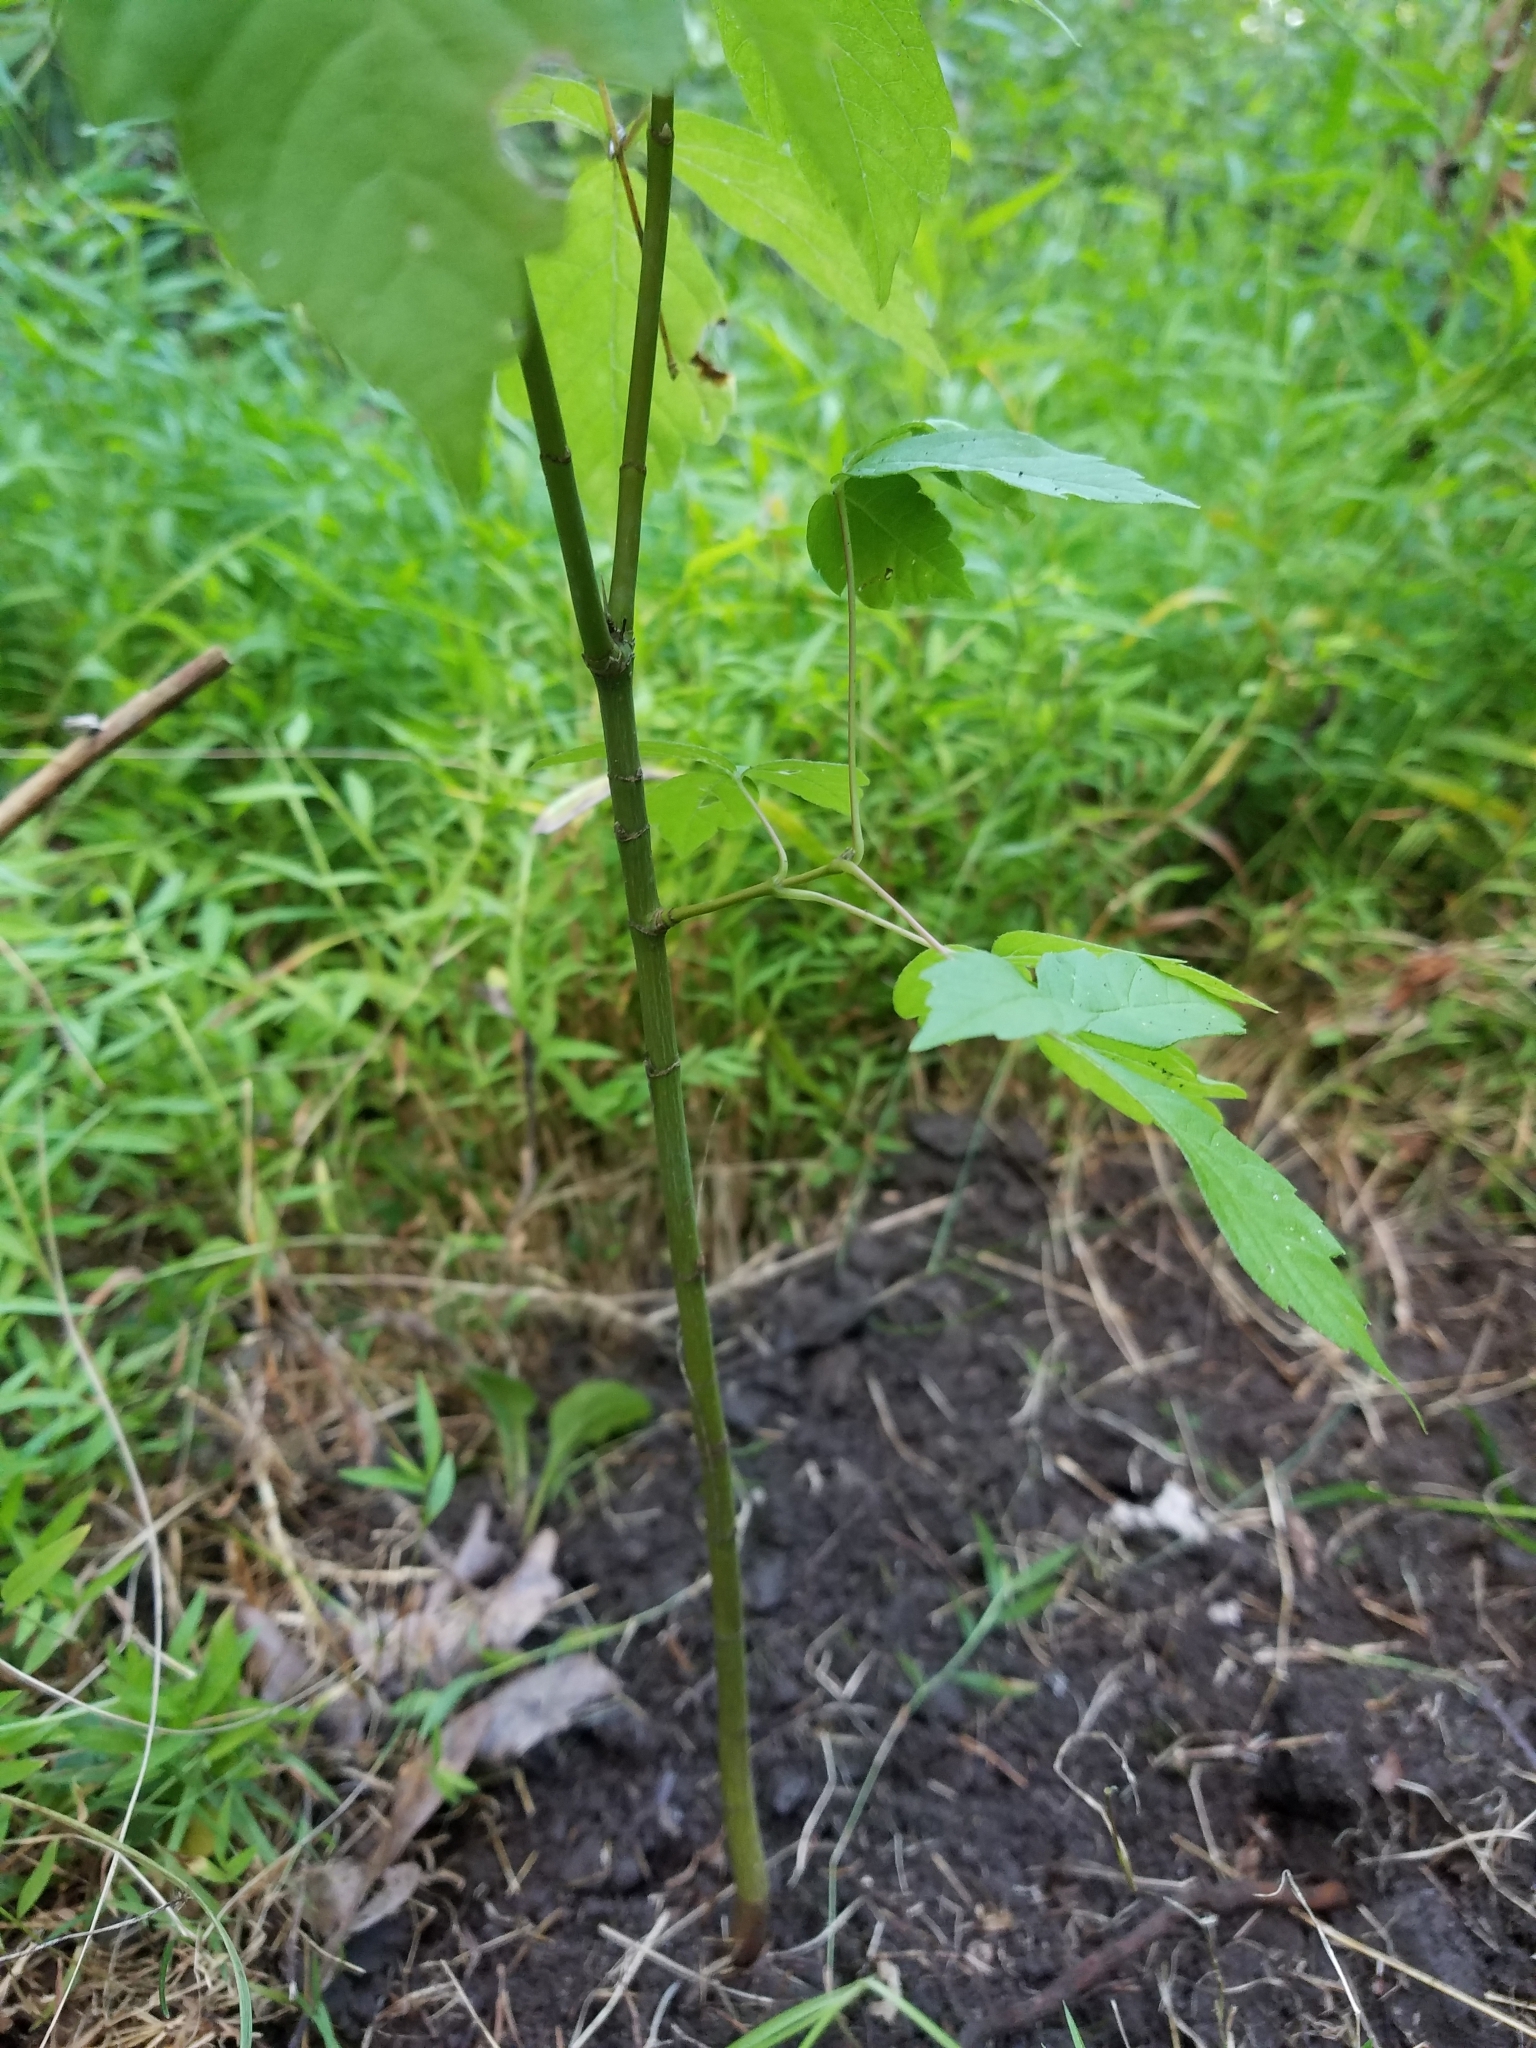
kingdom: Plantae
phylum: Tracheophyta
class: Magnoliopsida
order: Sapindales
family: Sapindaceae
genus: Acer
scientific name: Acer negundo
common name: Ashleaf maple
